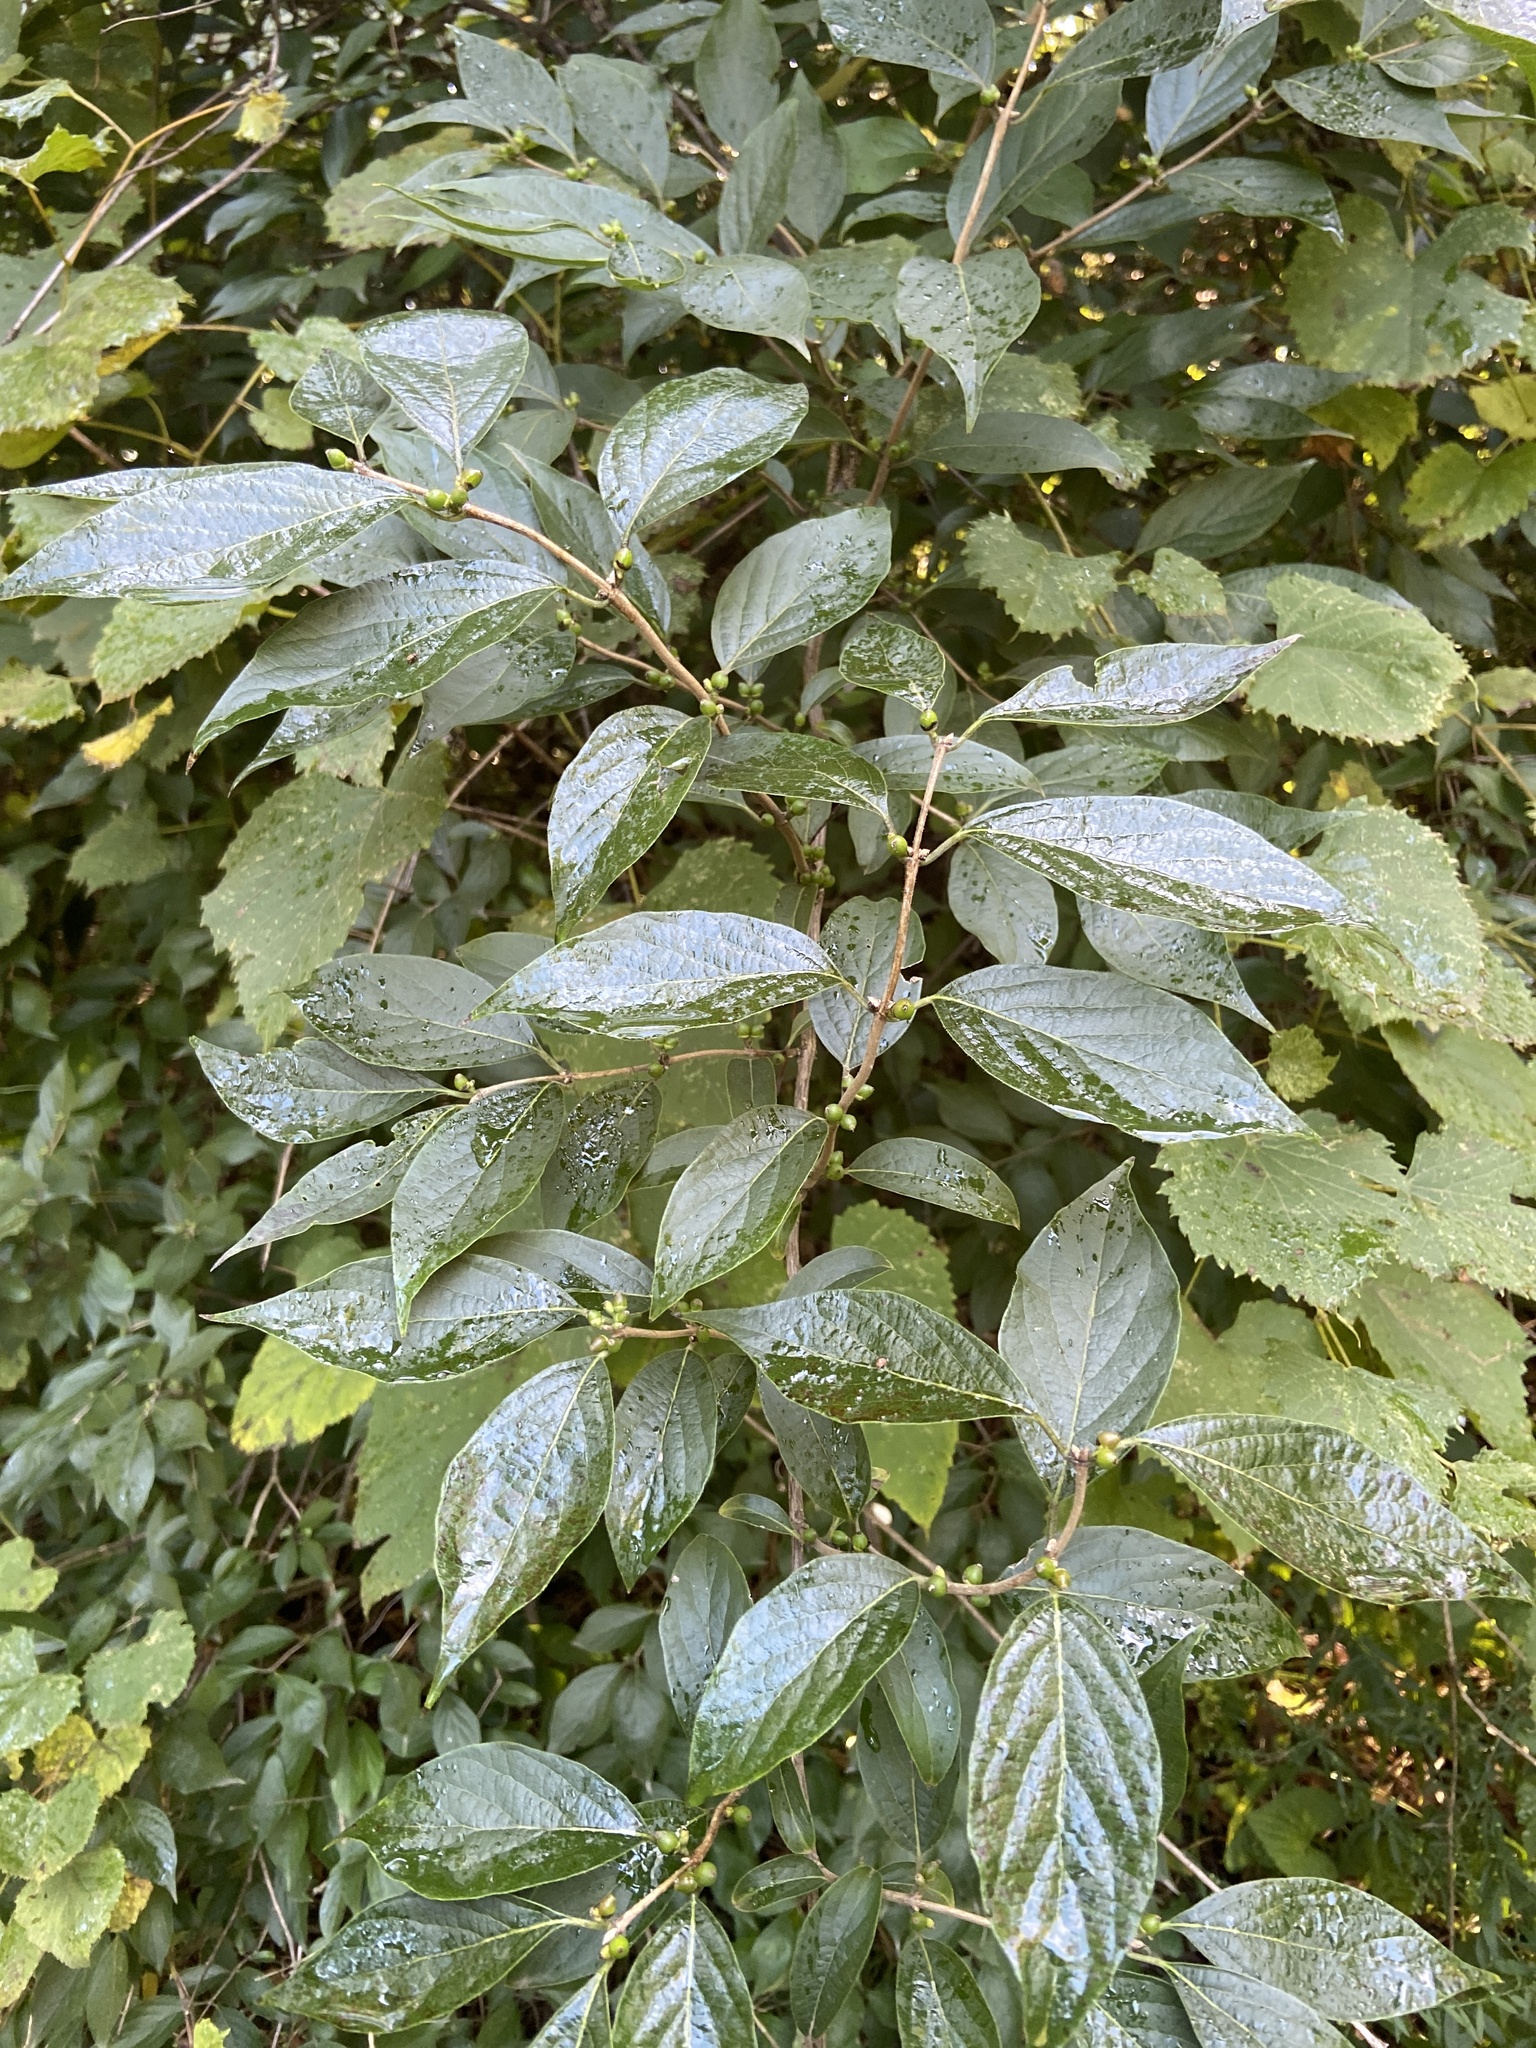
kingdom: Plantae
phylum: Tracheophyta
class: Magnoliopsida
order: Dipsacales
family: Caprifoliaceae
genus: Lonicera
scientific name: Lonicera maackii
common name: Amur honeysuckle
